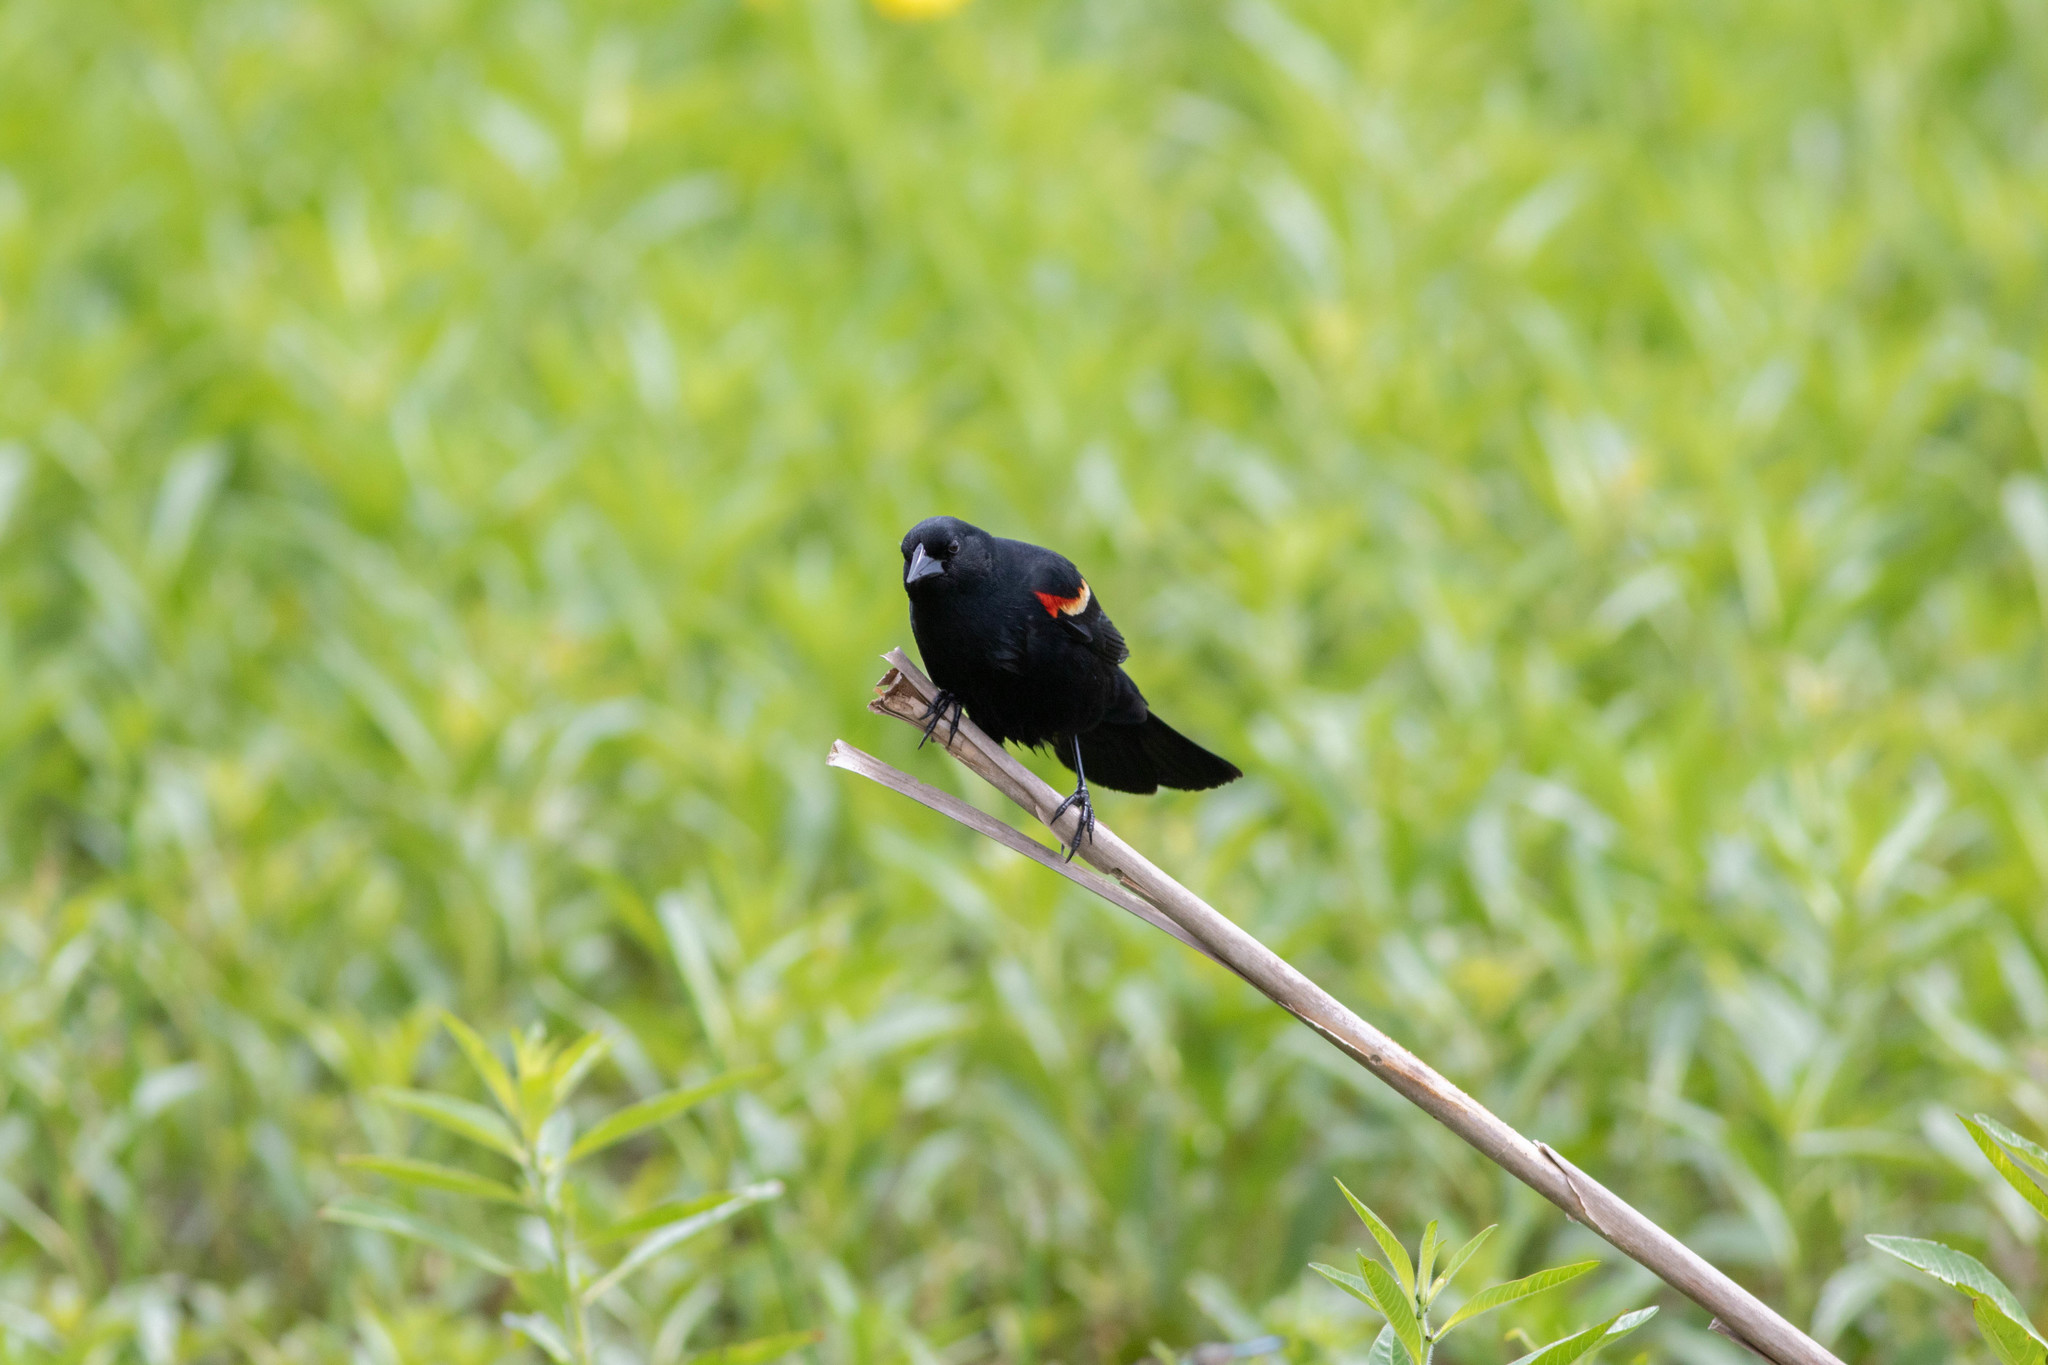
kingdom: Animalia
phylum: Chordata
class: Aves
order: Passeriformes
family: Icteridae
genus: Agelaius
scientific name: Agelaius phoeniceus
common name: Red-winged blackbird
